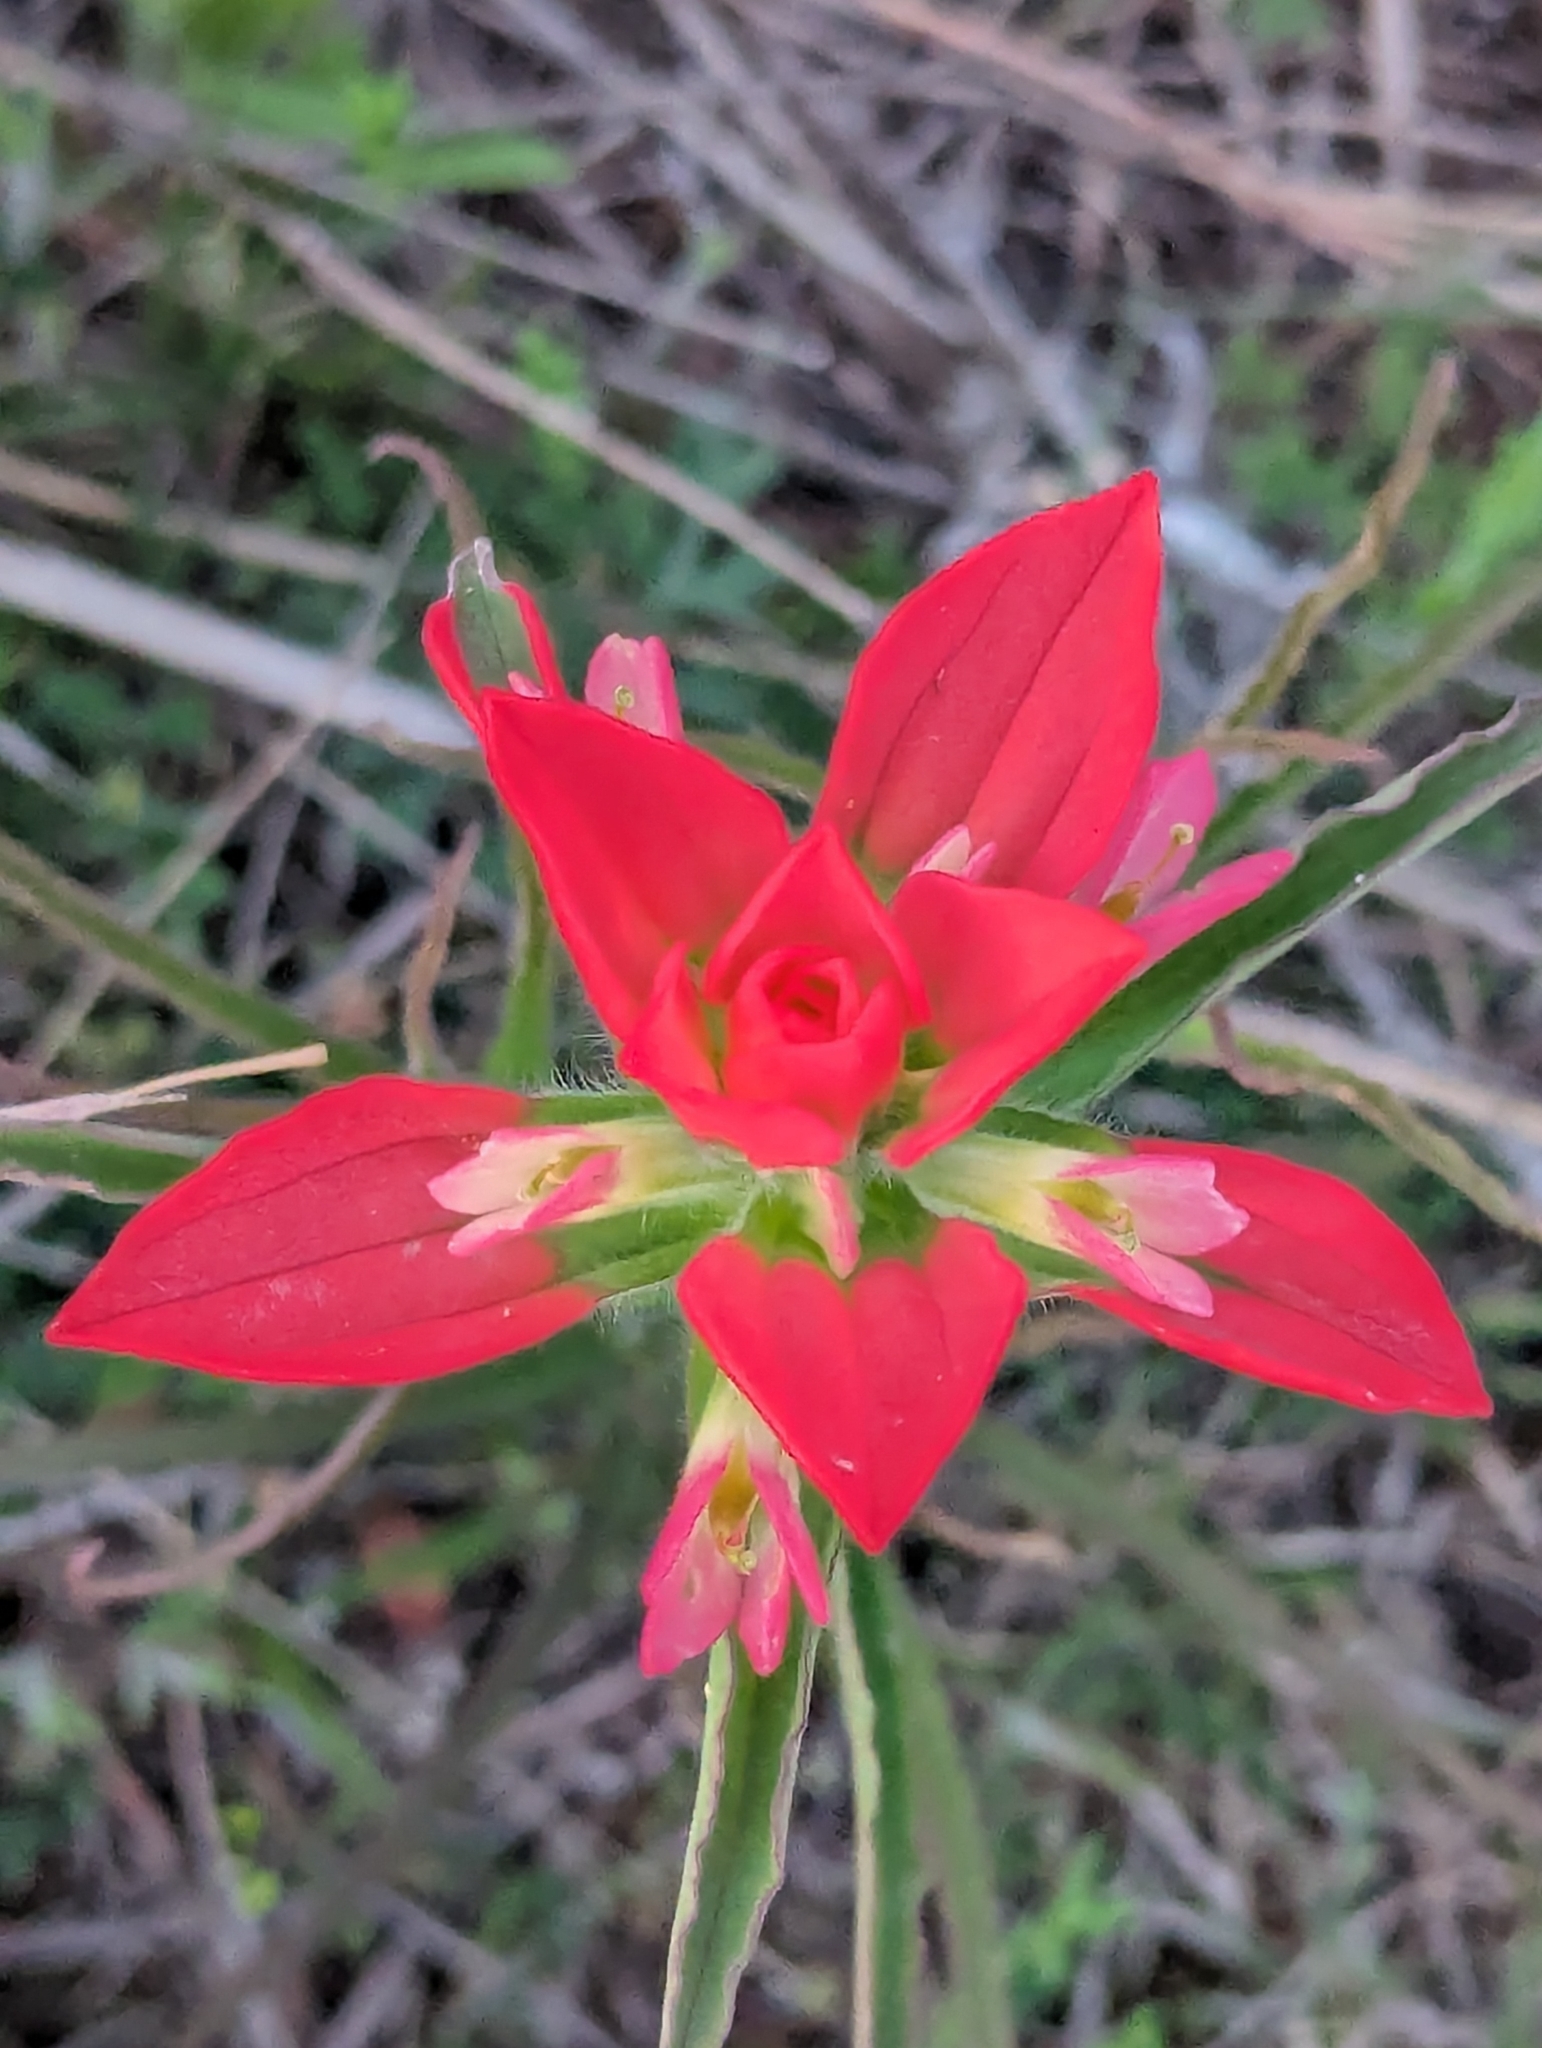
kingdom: Plantae
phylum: Tracheophyta
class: Magnoliopsida
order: Lamiales
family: Orobanchaceae
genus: Castilleja
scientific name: Castilleja indivisa
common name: Texas paintbrush
